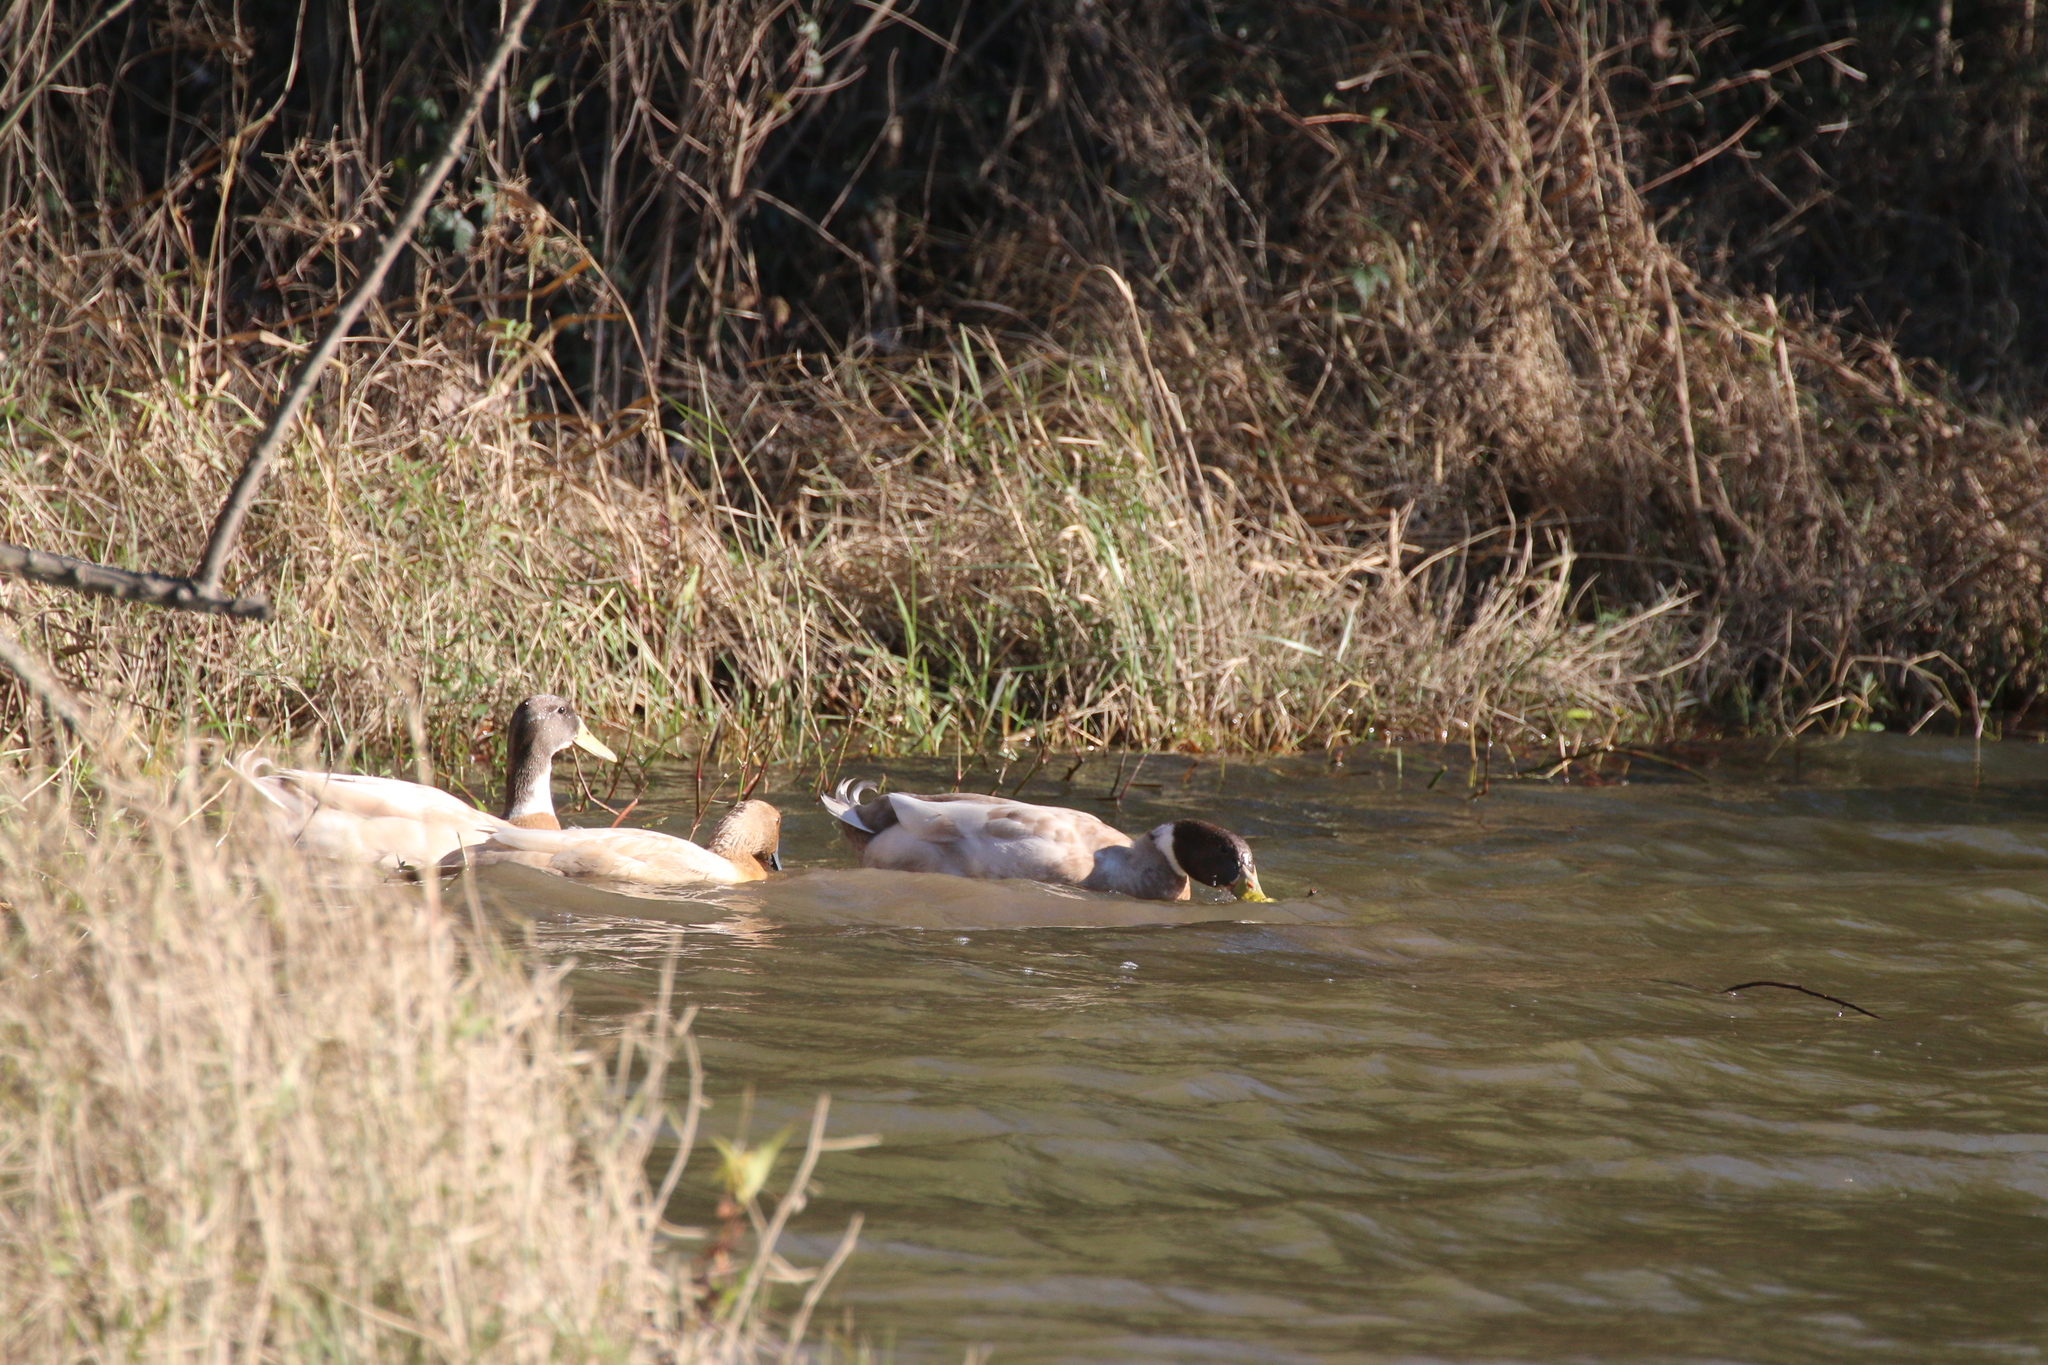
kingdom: Animalia
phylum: Chordata
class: Aves
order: Anseriformes
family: Anatidae
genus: Anas
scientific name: Anas platyrhynchos
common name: Mallard
